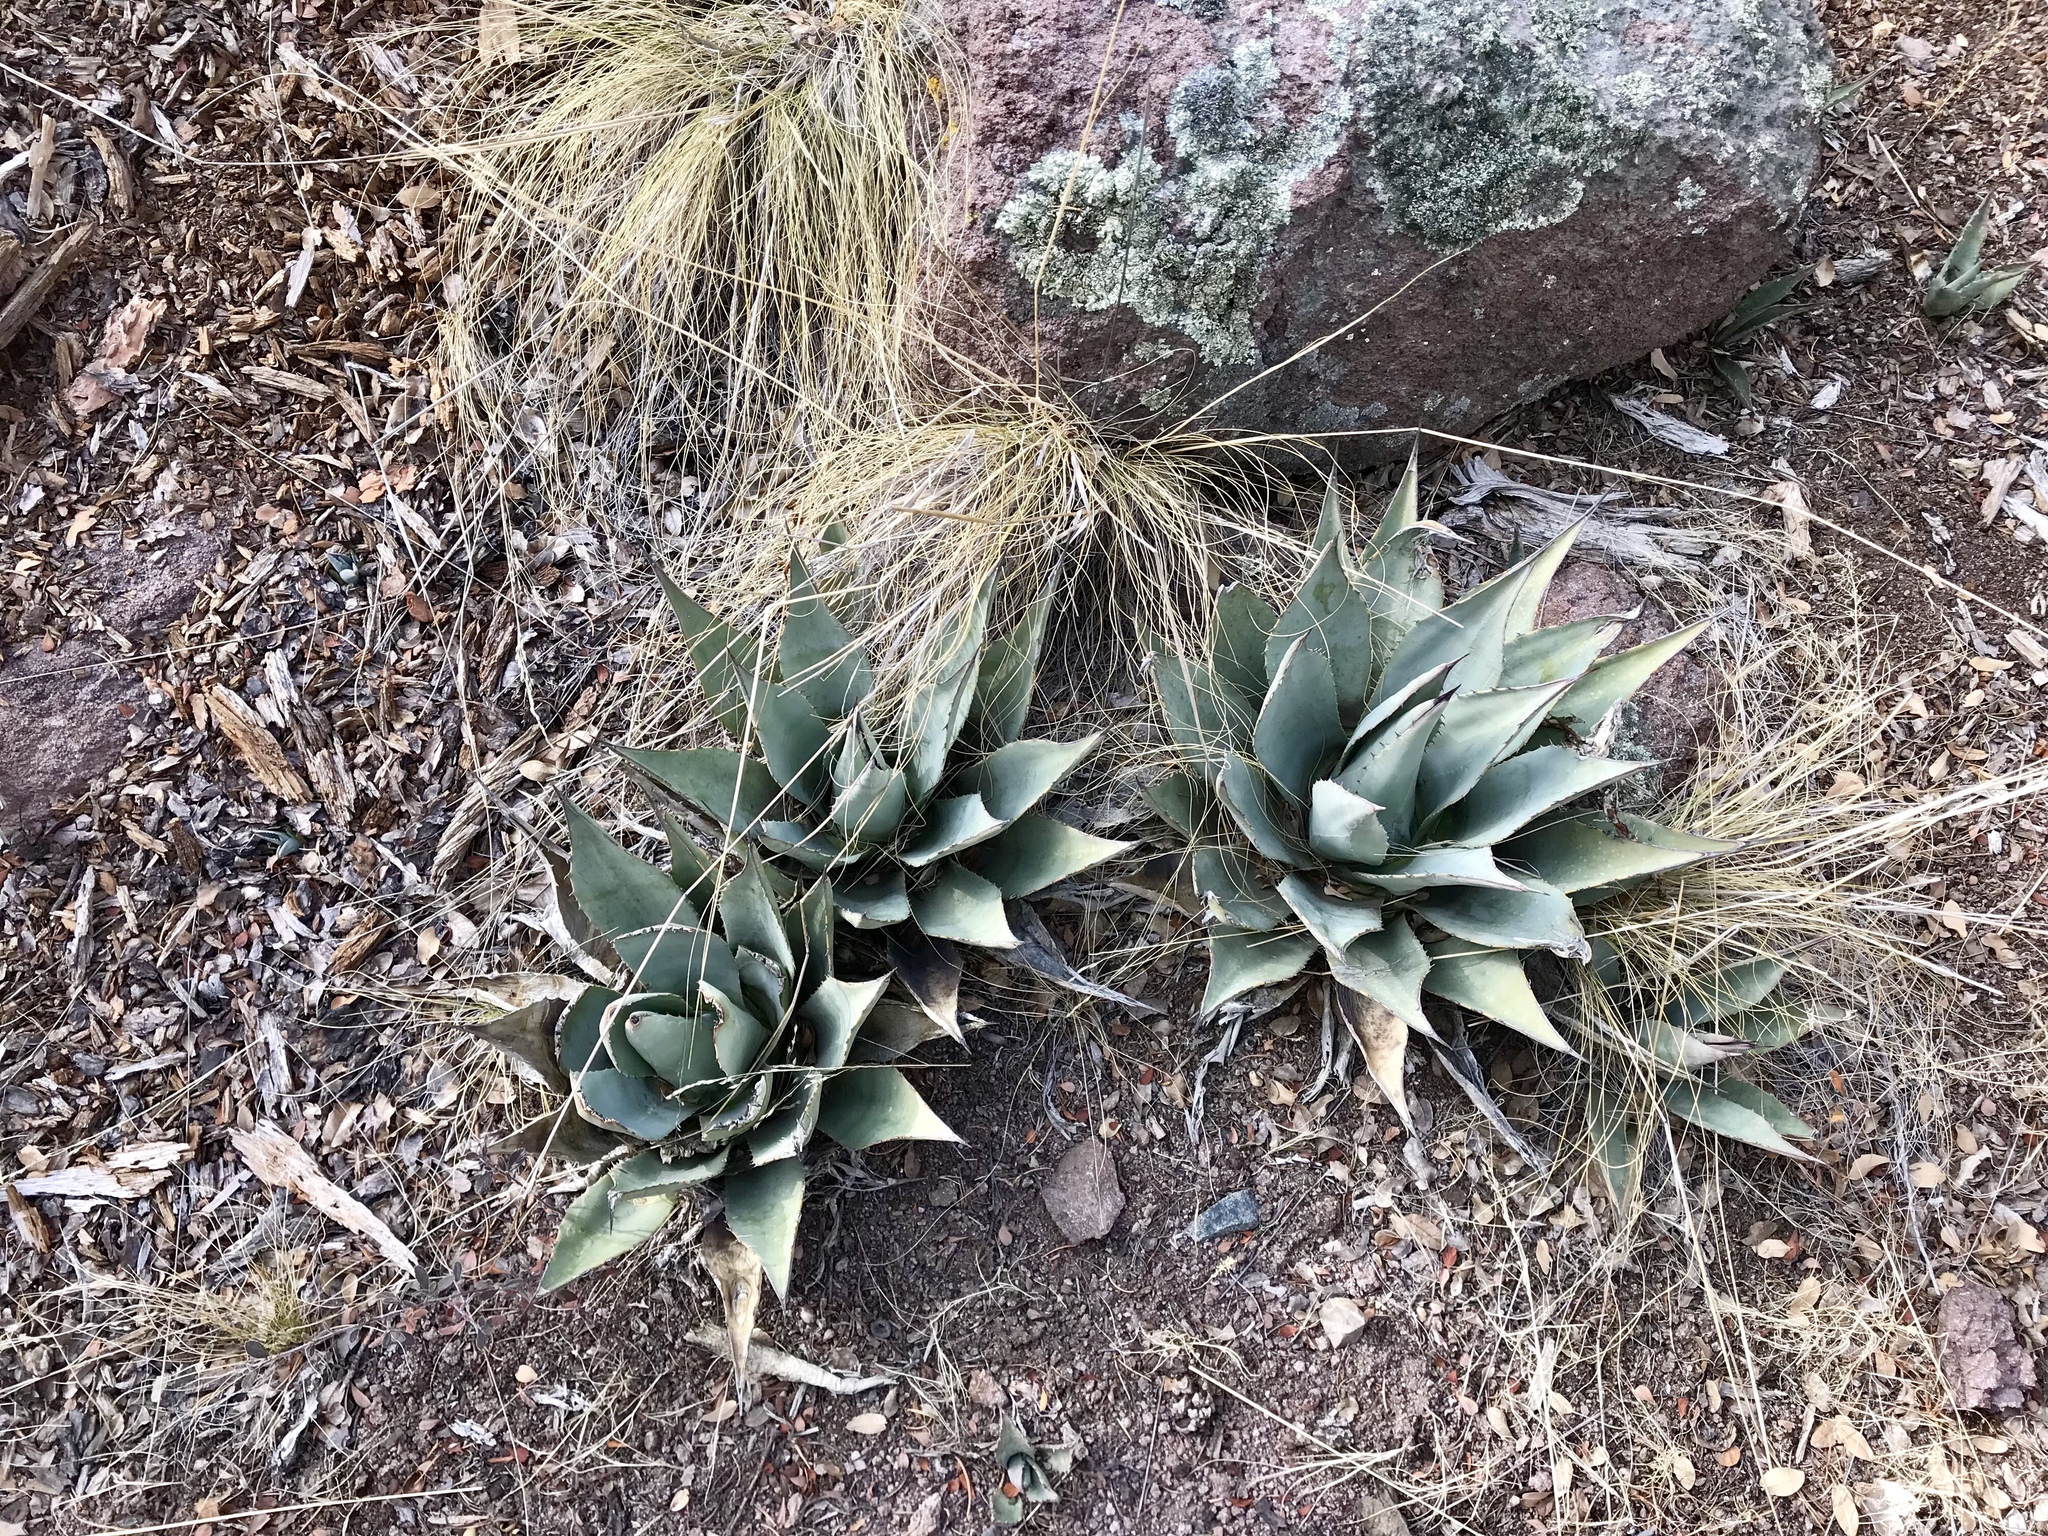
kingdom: Plantae
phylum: Tracheophyta
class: Liliopsida
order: Asparagales
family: Asparagaceae
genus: Agave
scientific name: Agave parryi
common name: Parry's agave
